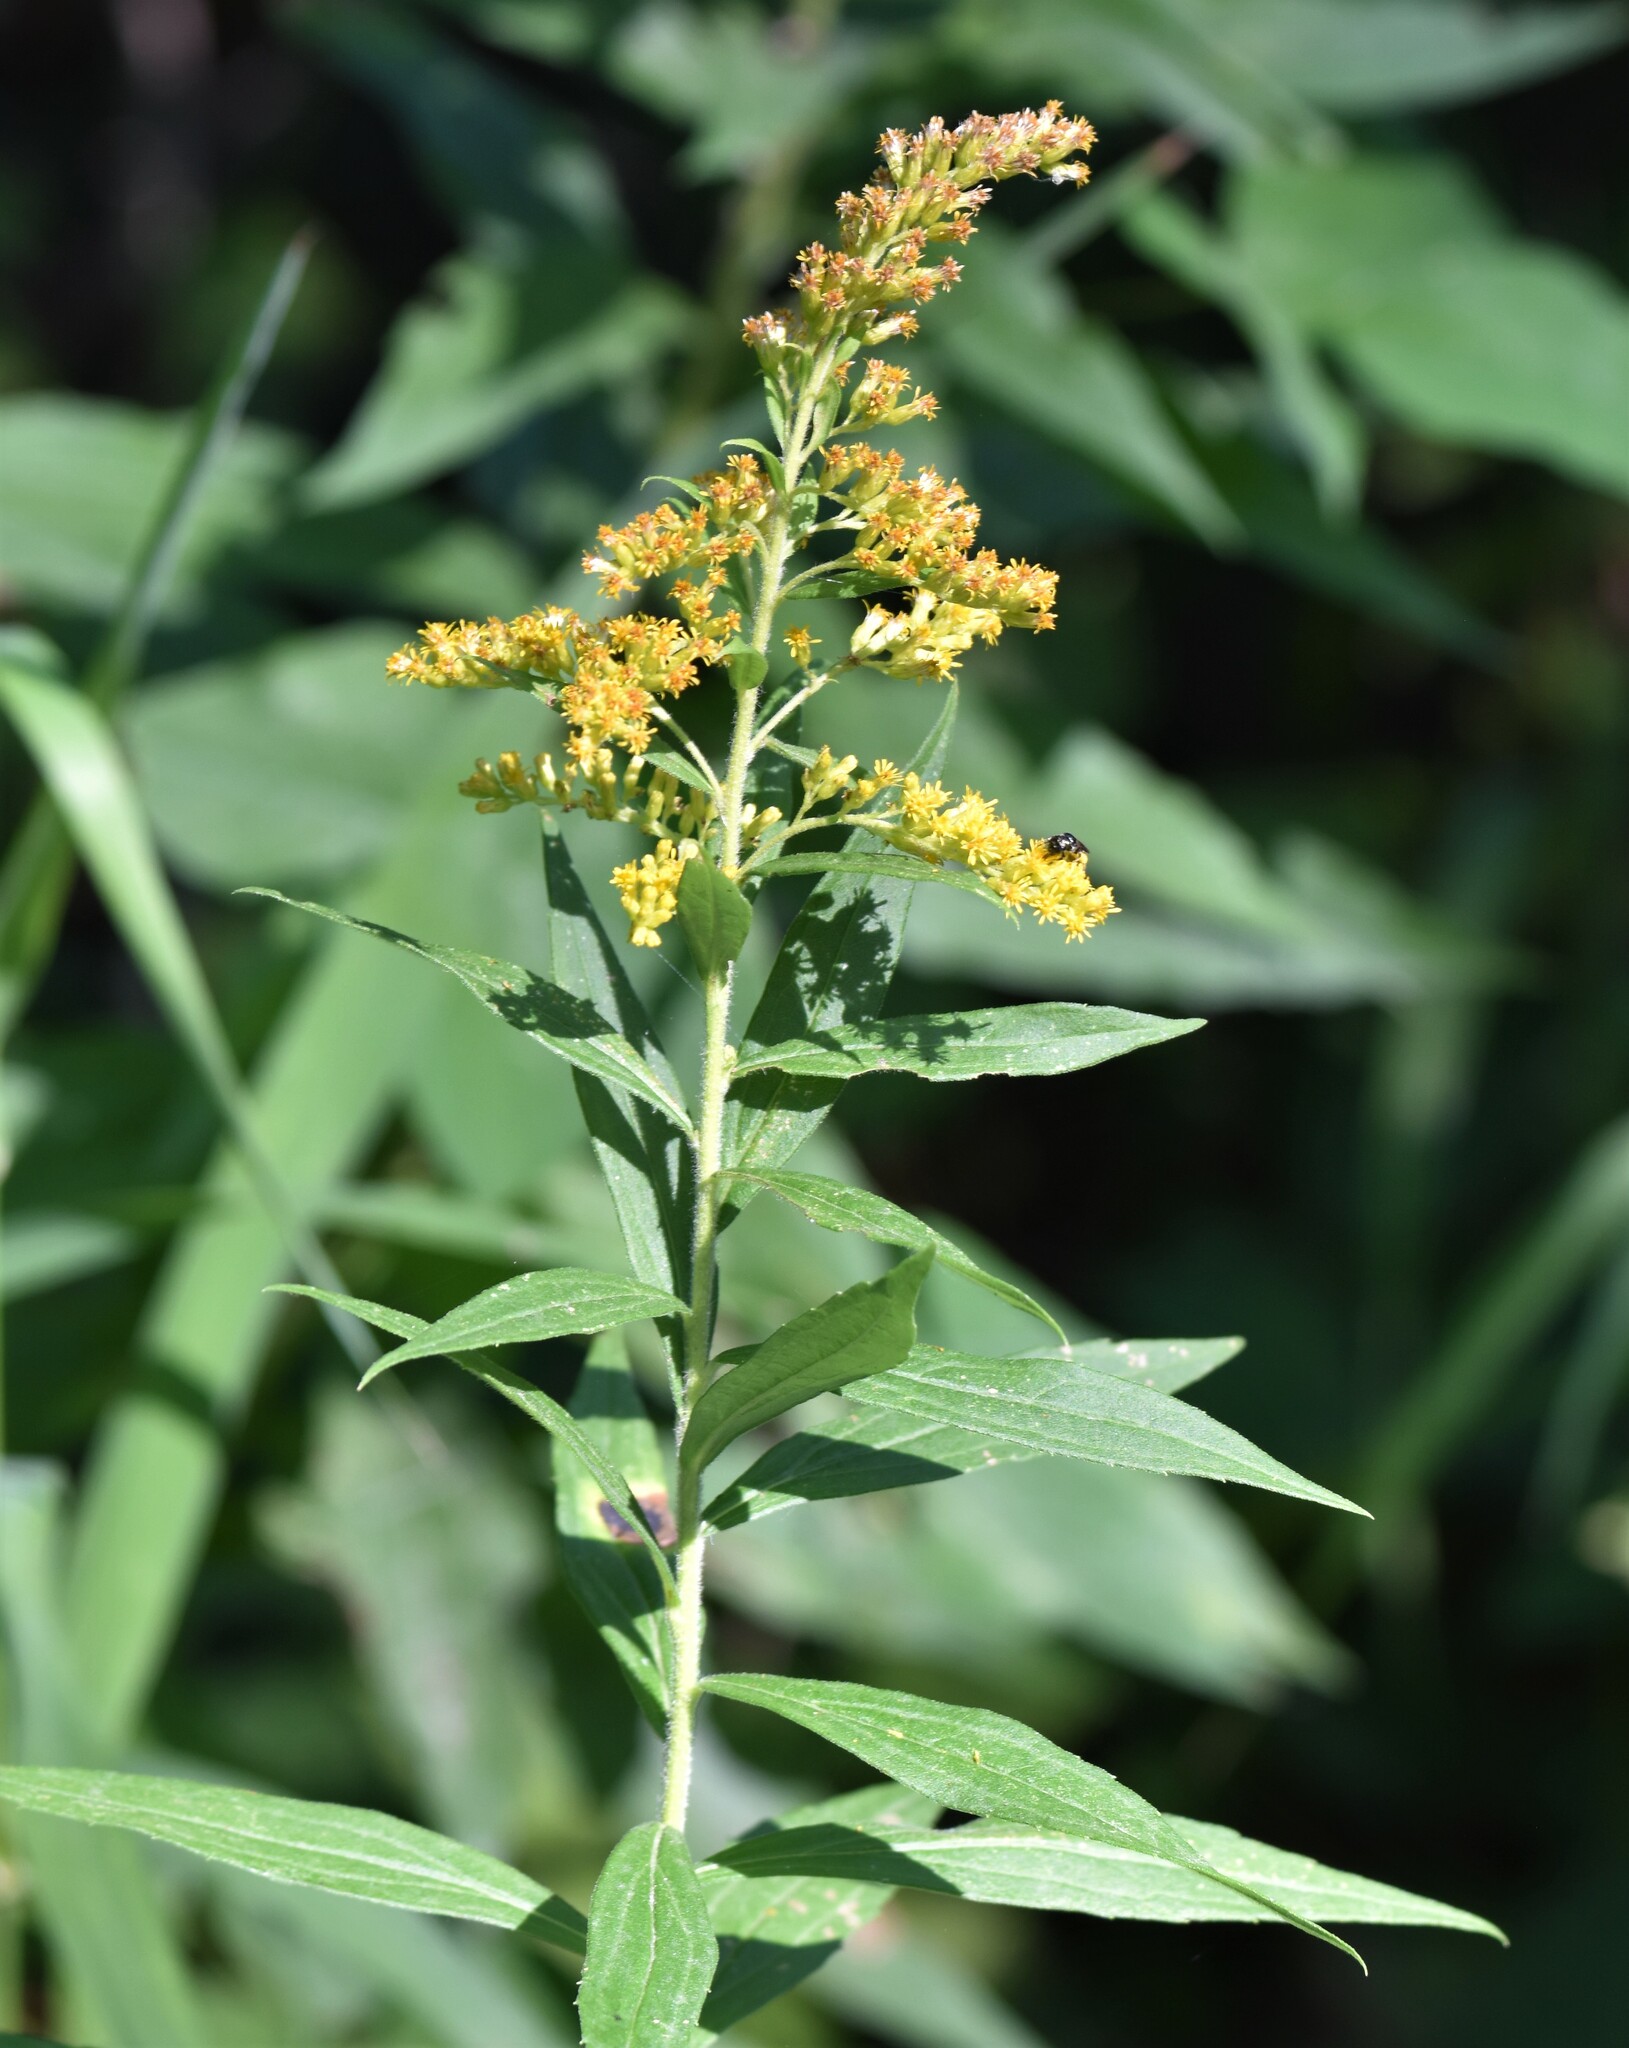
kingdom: Plantae
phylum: Tracheophyta
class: Magnoliopsida
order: Asterales
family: Asteraceae
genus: Solidago
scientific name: Solidago altissima
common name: Late goldenrod
